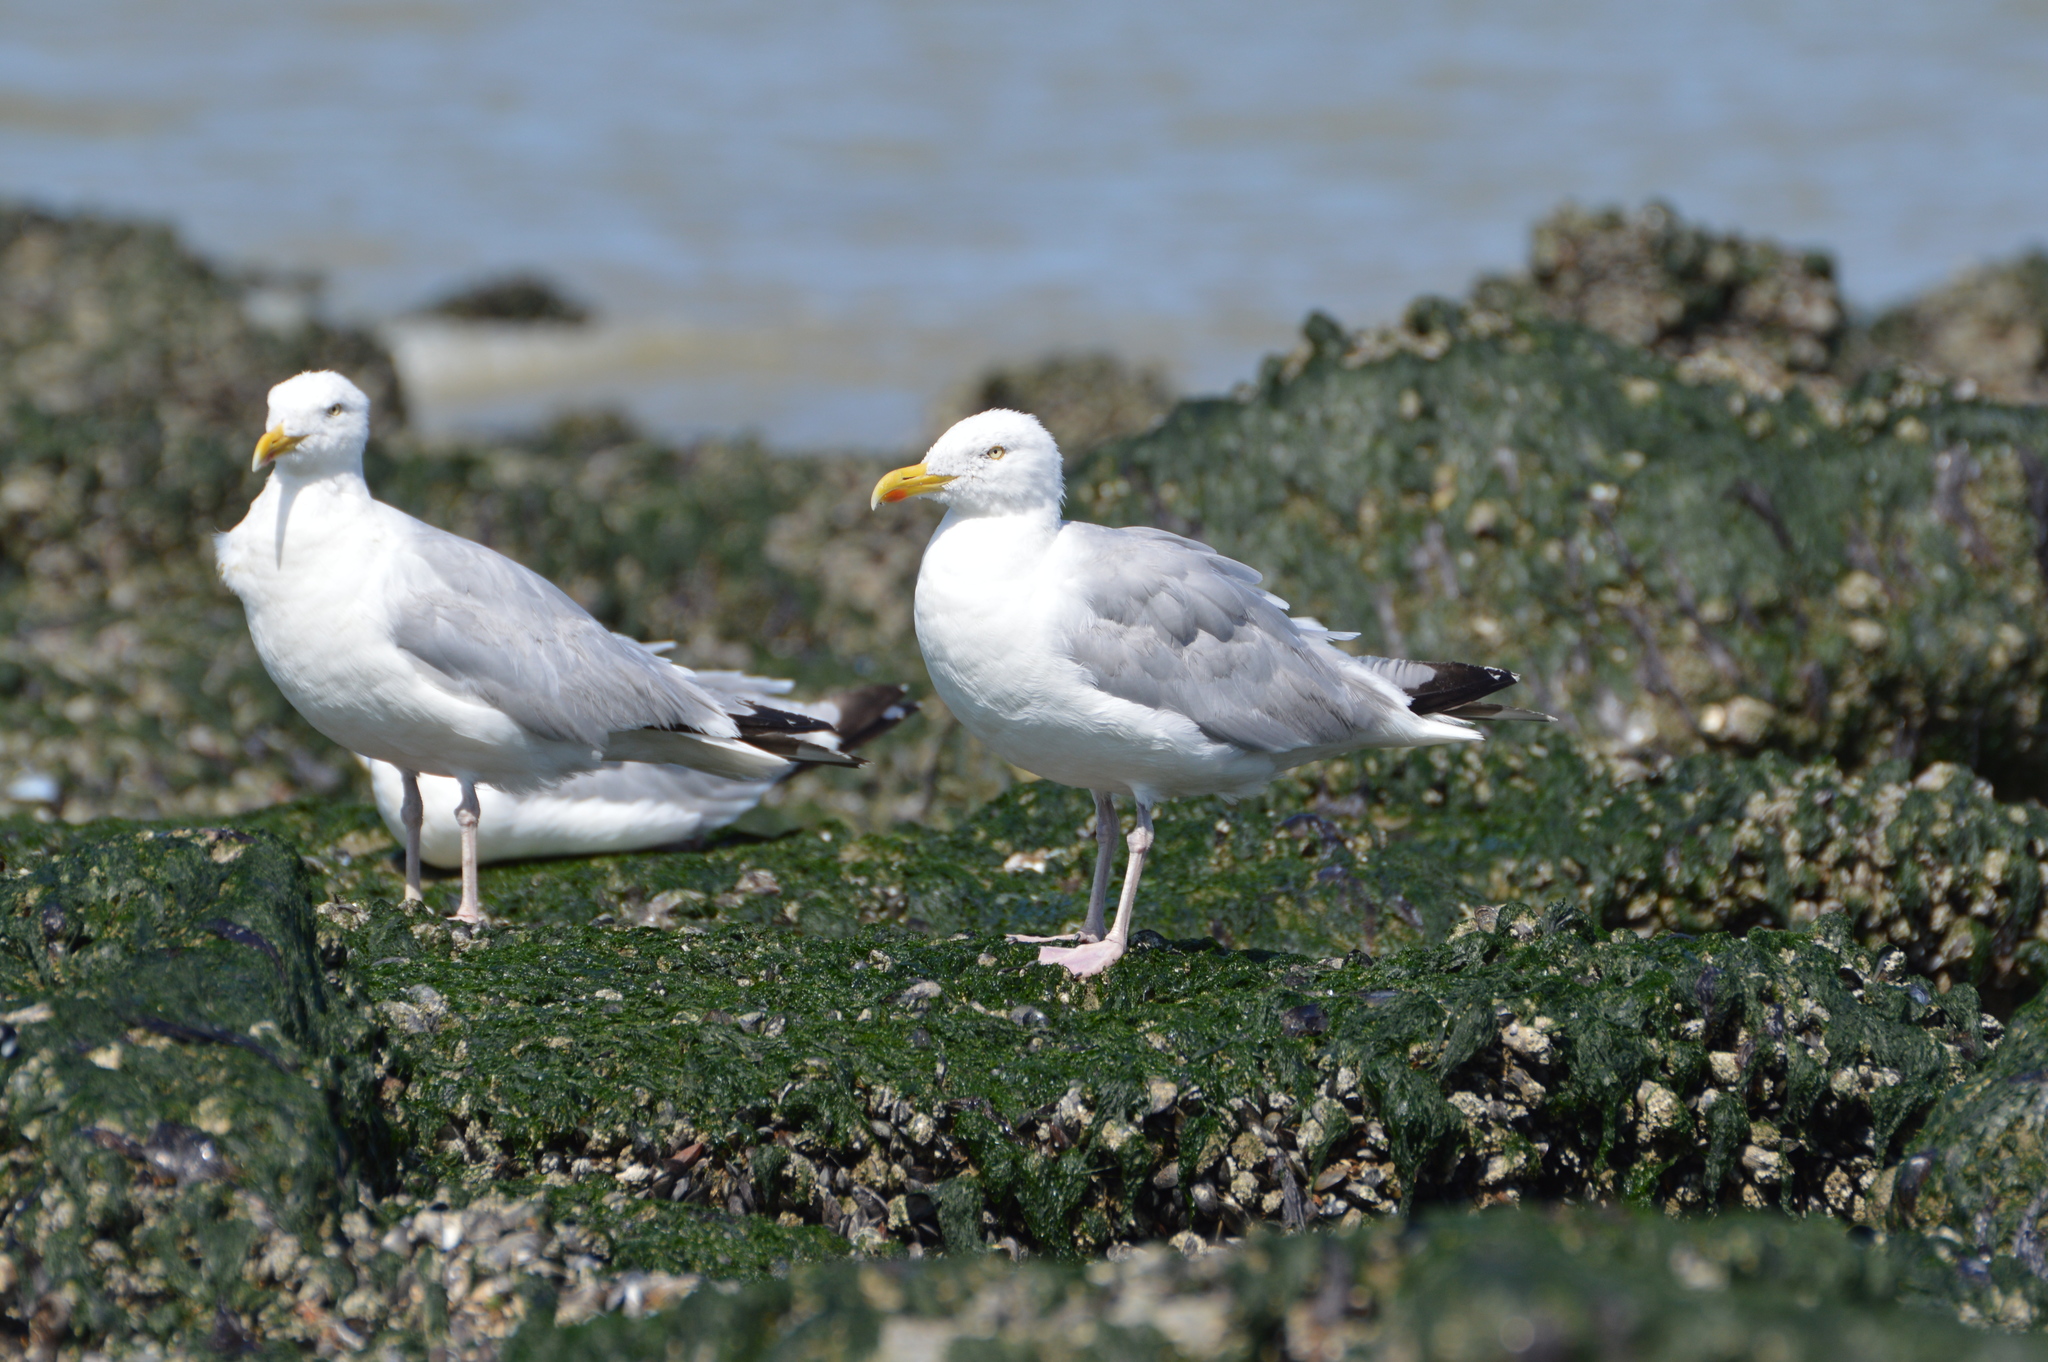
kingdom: Animalia
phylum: Chordata
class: Aves
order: Charadriiformes
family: Laridae
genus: Larus
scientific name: Larus argentatus
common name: Herring gull
